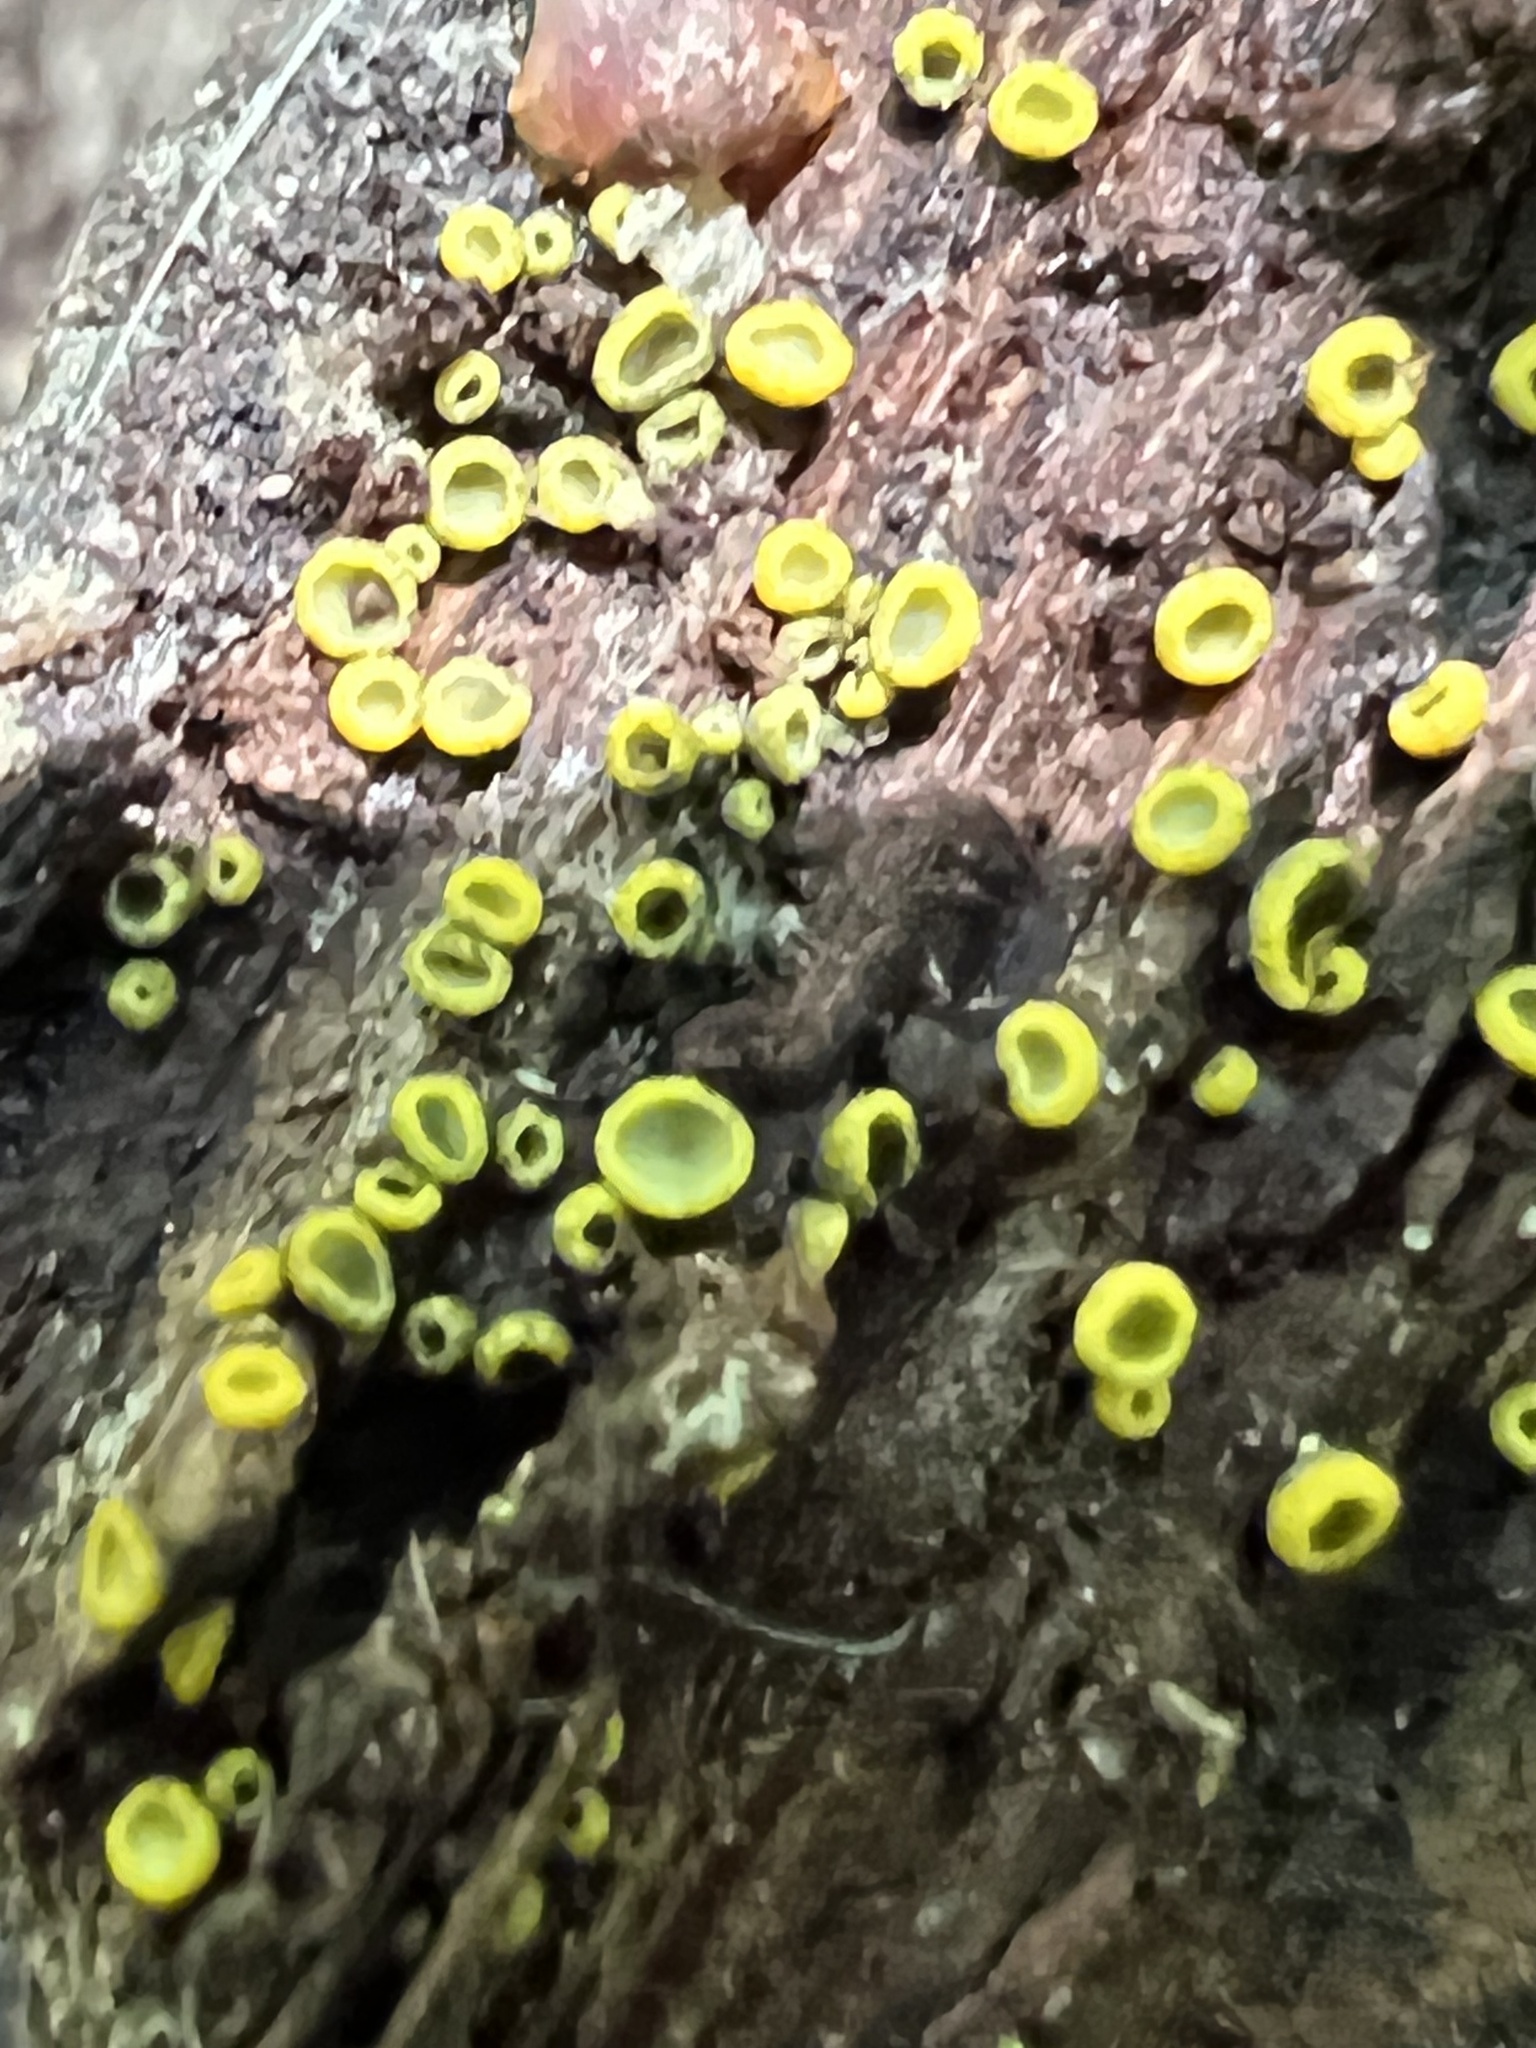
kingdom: Fungi
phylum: Ascomycota
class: Leotiomycetes
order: Helotiales
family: Chlorospleniaceae
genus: Chlorosplenium
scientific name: Chlorosplenium chlora
